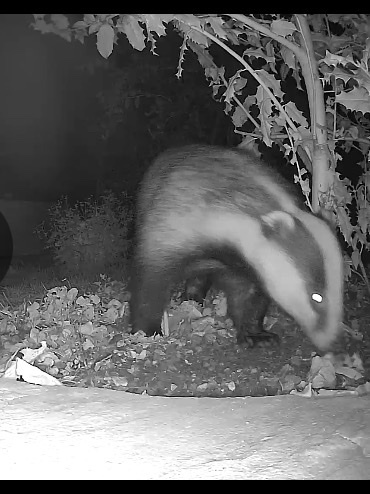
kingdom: Animalia
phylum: Chordata
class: Mammalia
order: Carnivora
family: Mustelidae
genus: Meles
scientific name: Meles meles
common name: Eurasian badger
